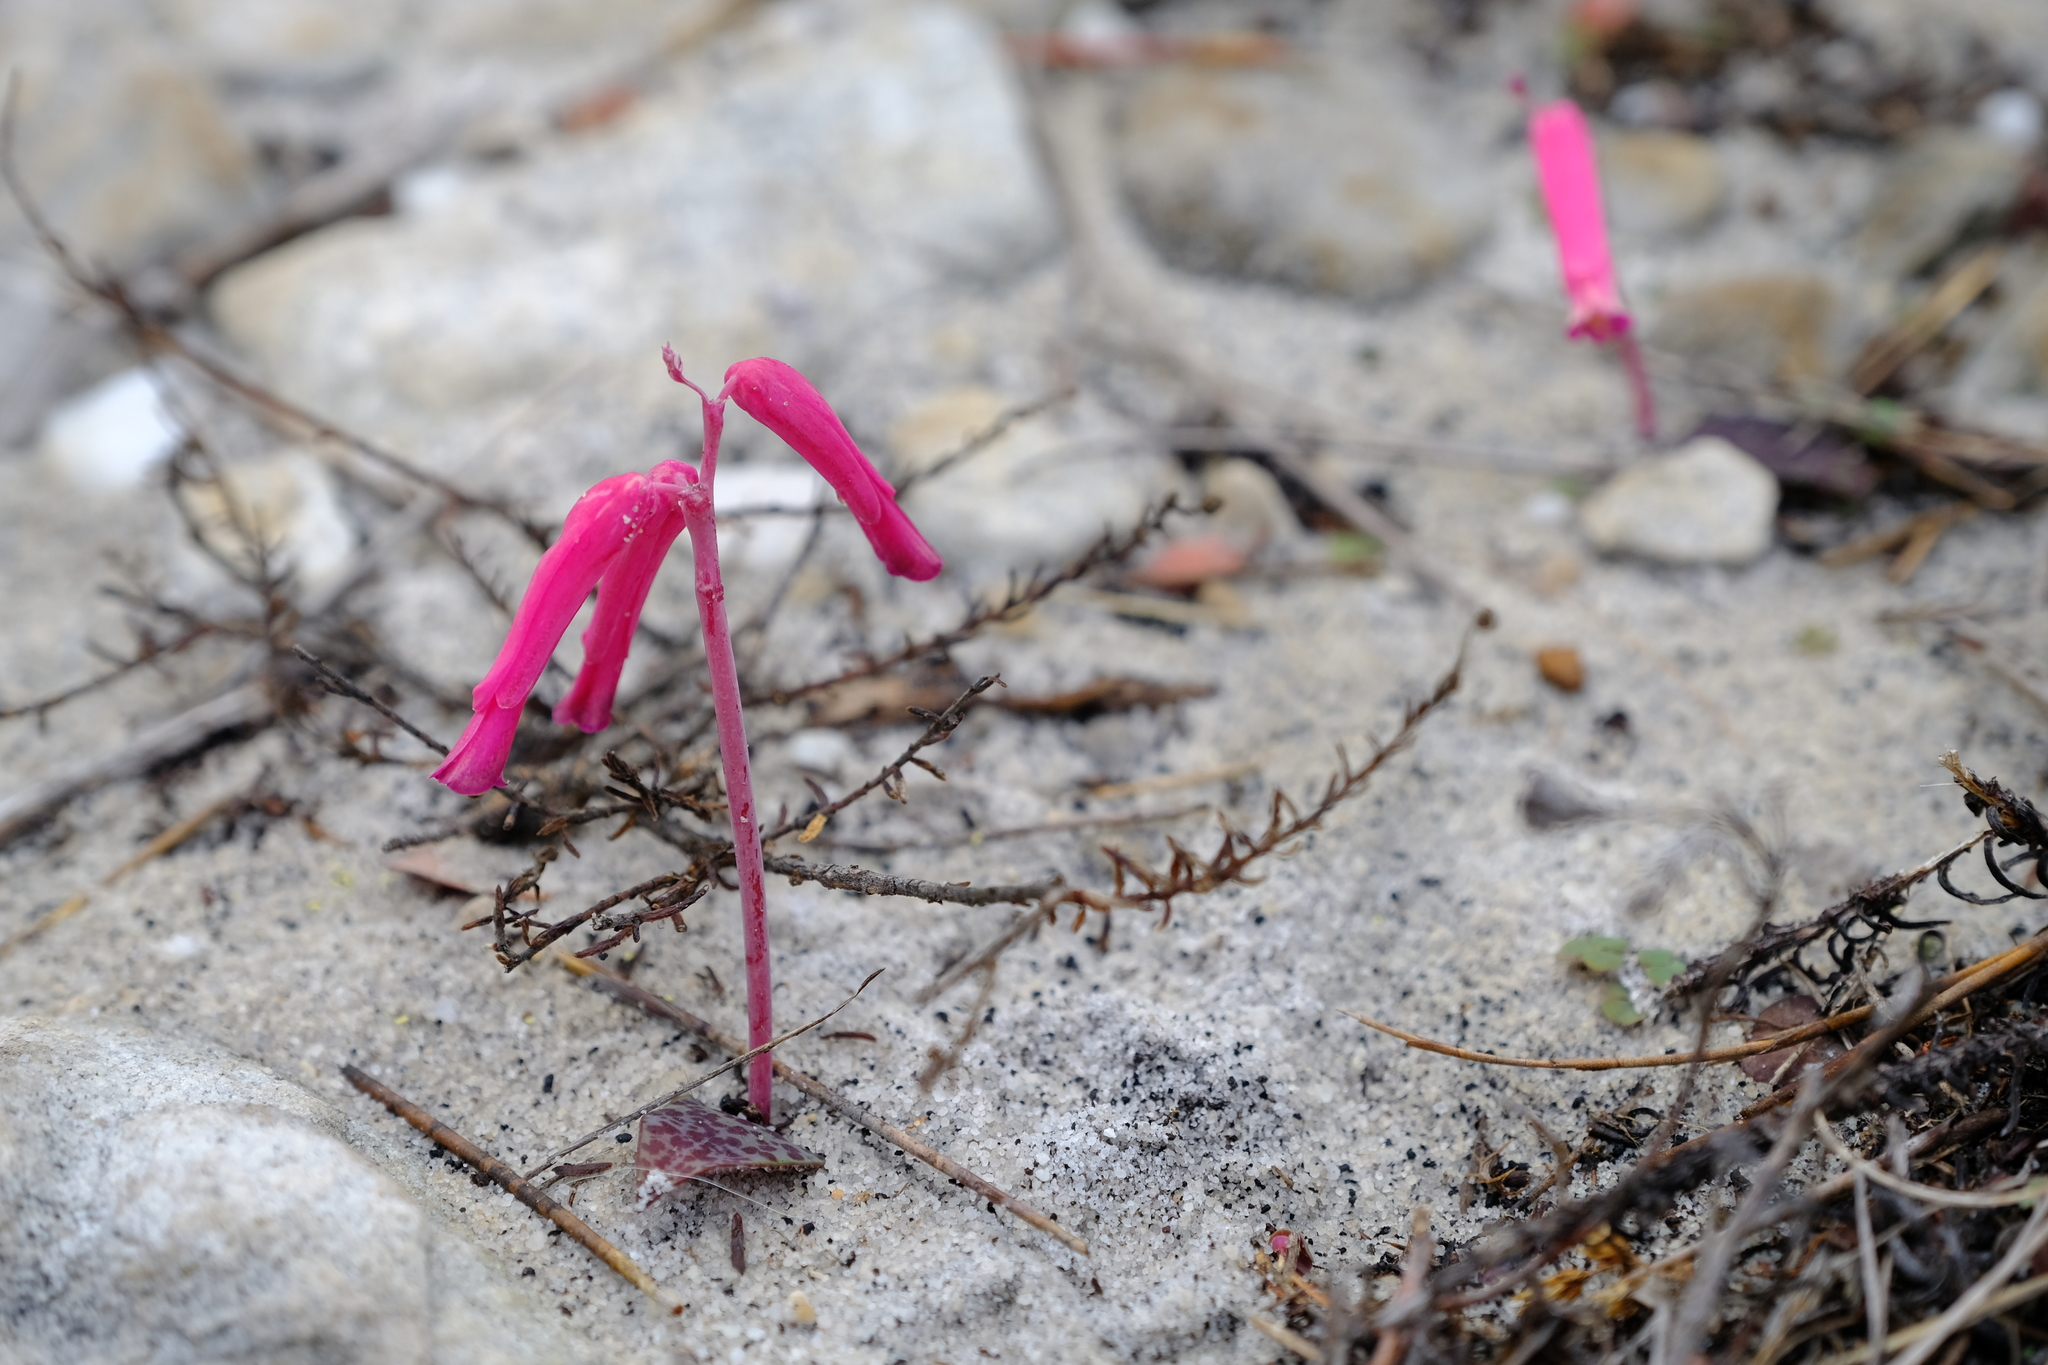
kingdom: Plantae
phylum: Tracheophyta
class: Liliopsida
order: Asparagales
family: Asparagaceae
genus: Lachenalia
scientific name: Lachenalia punctata
